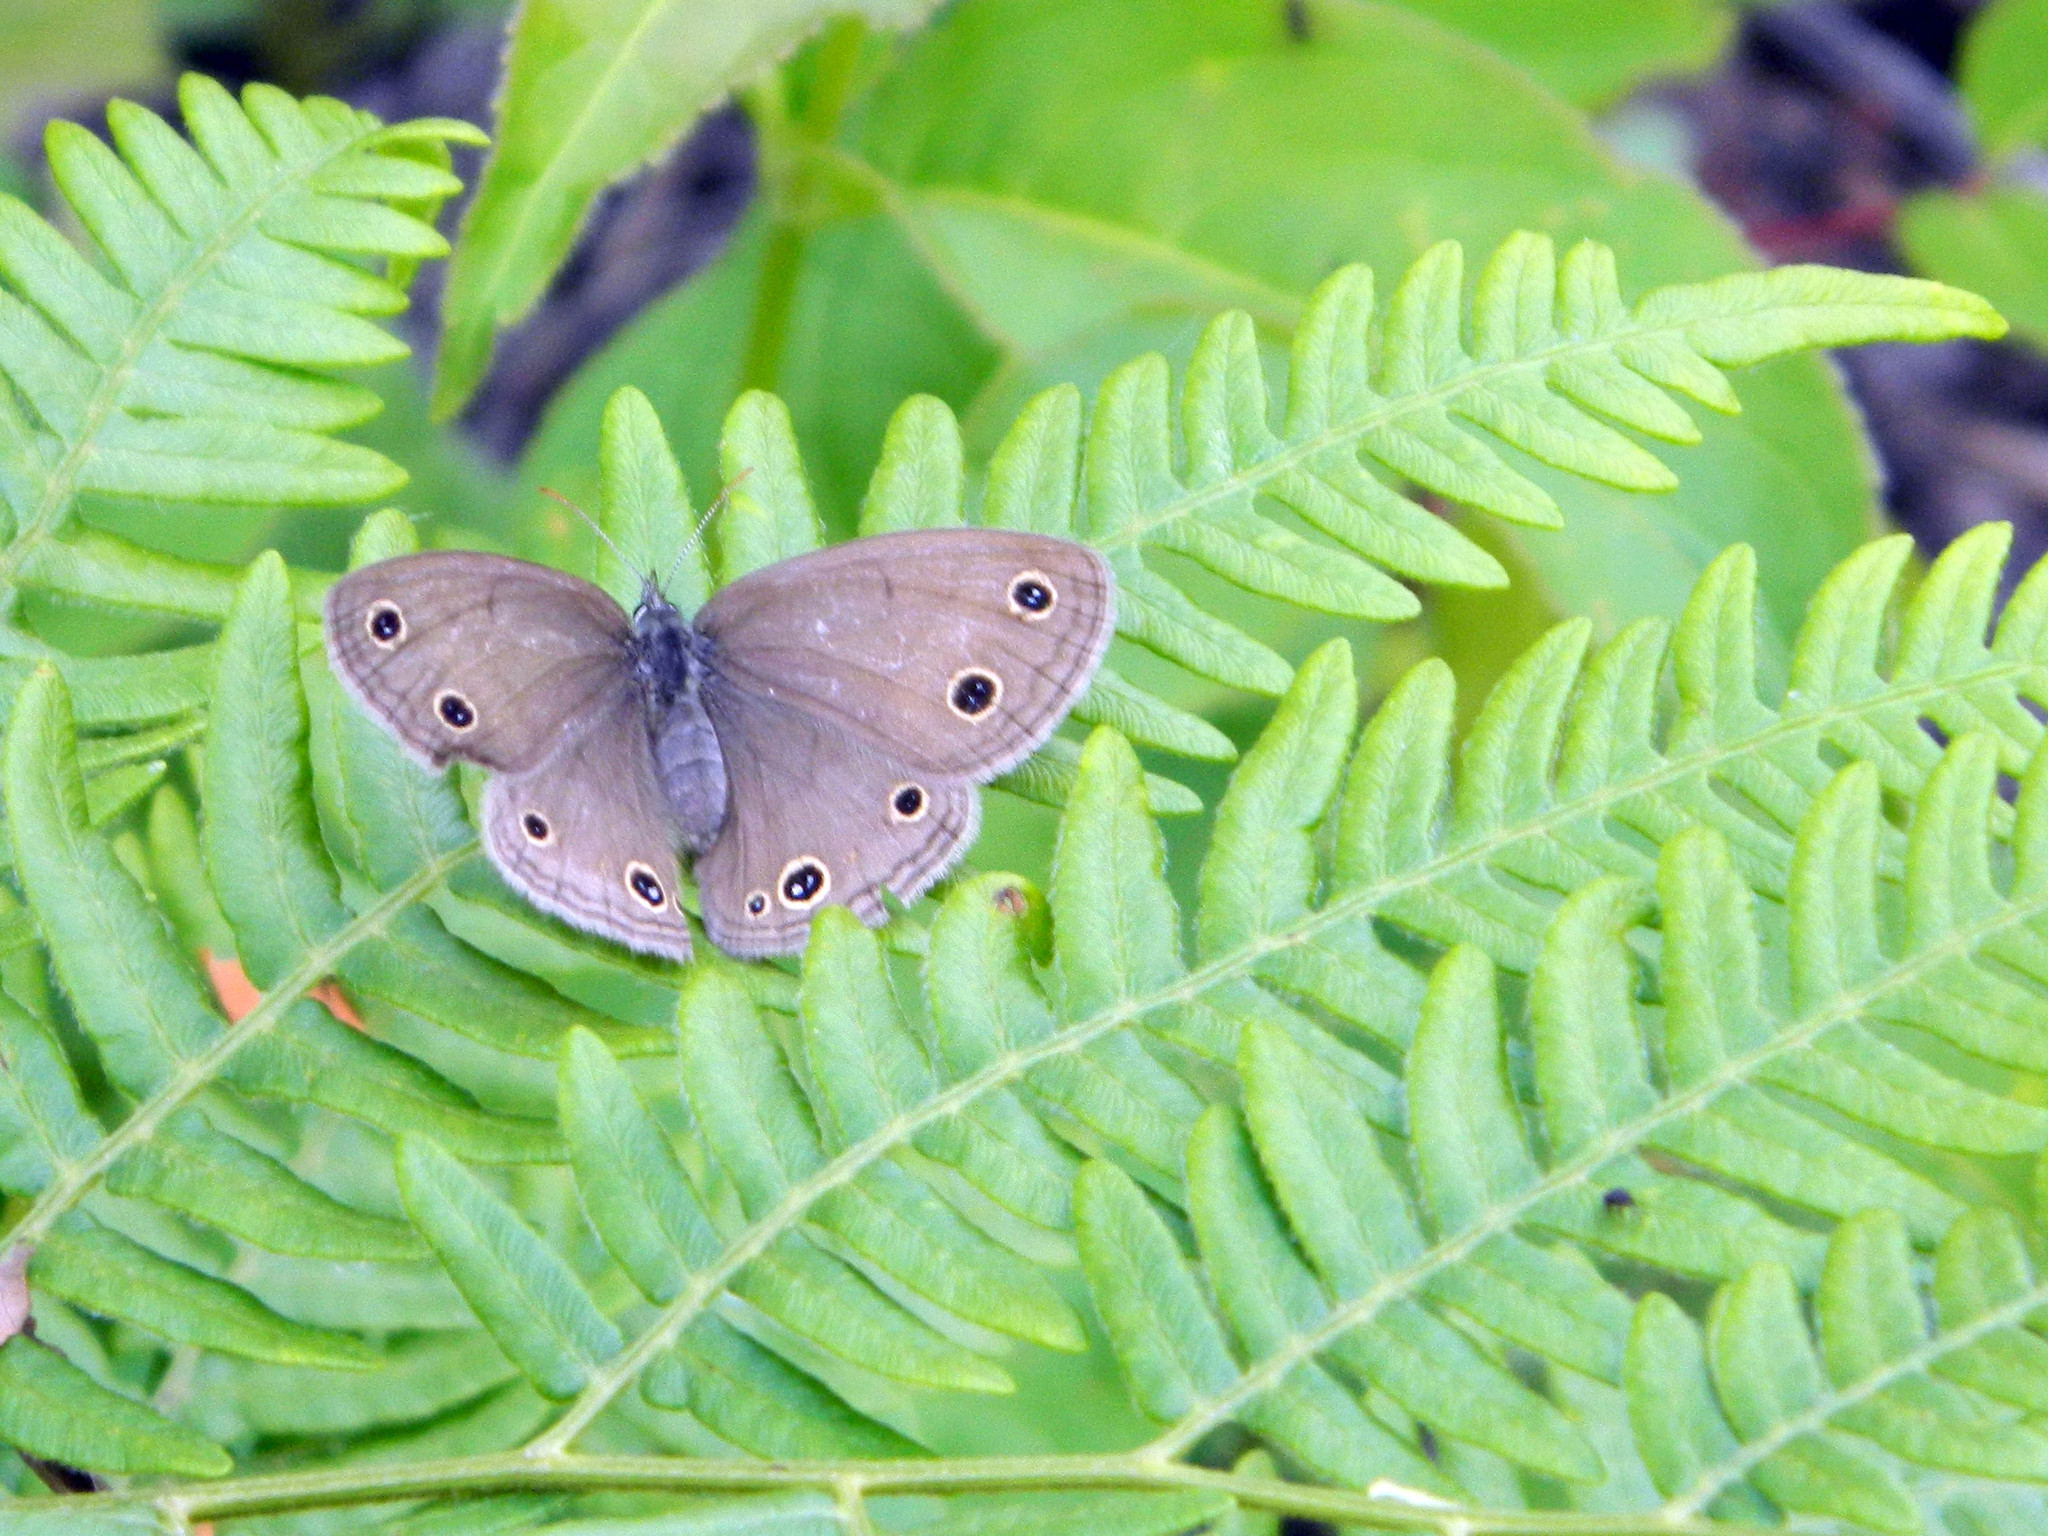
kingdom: Animalia
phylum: Arthropoda
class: Insecta
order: Lepidoptera
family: Nymphalidae
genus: Euptychia
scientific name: Euptychia cymela
